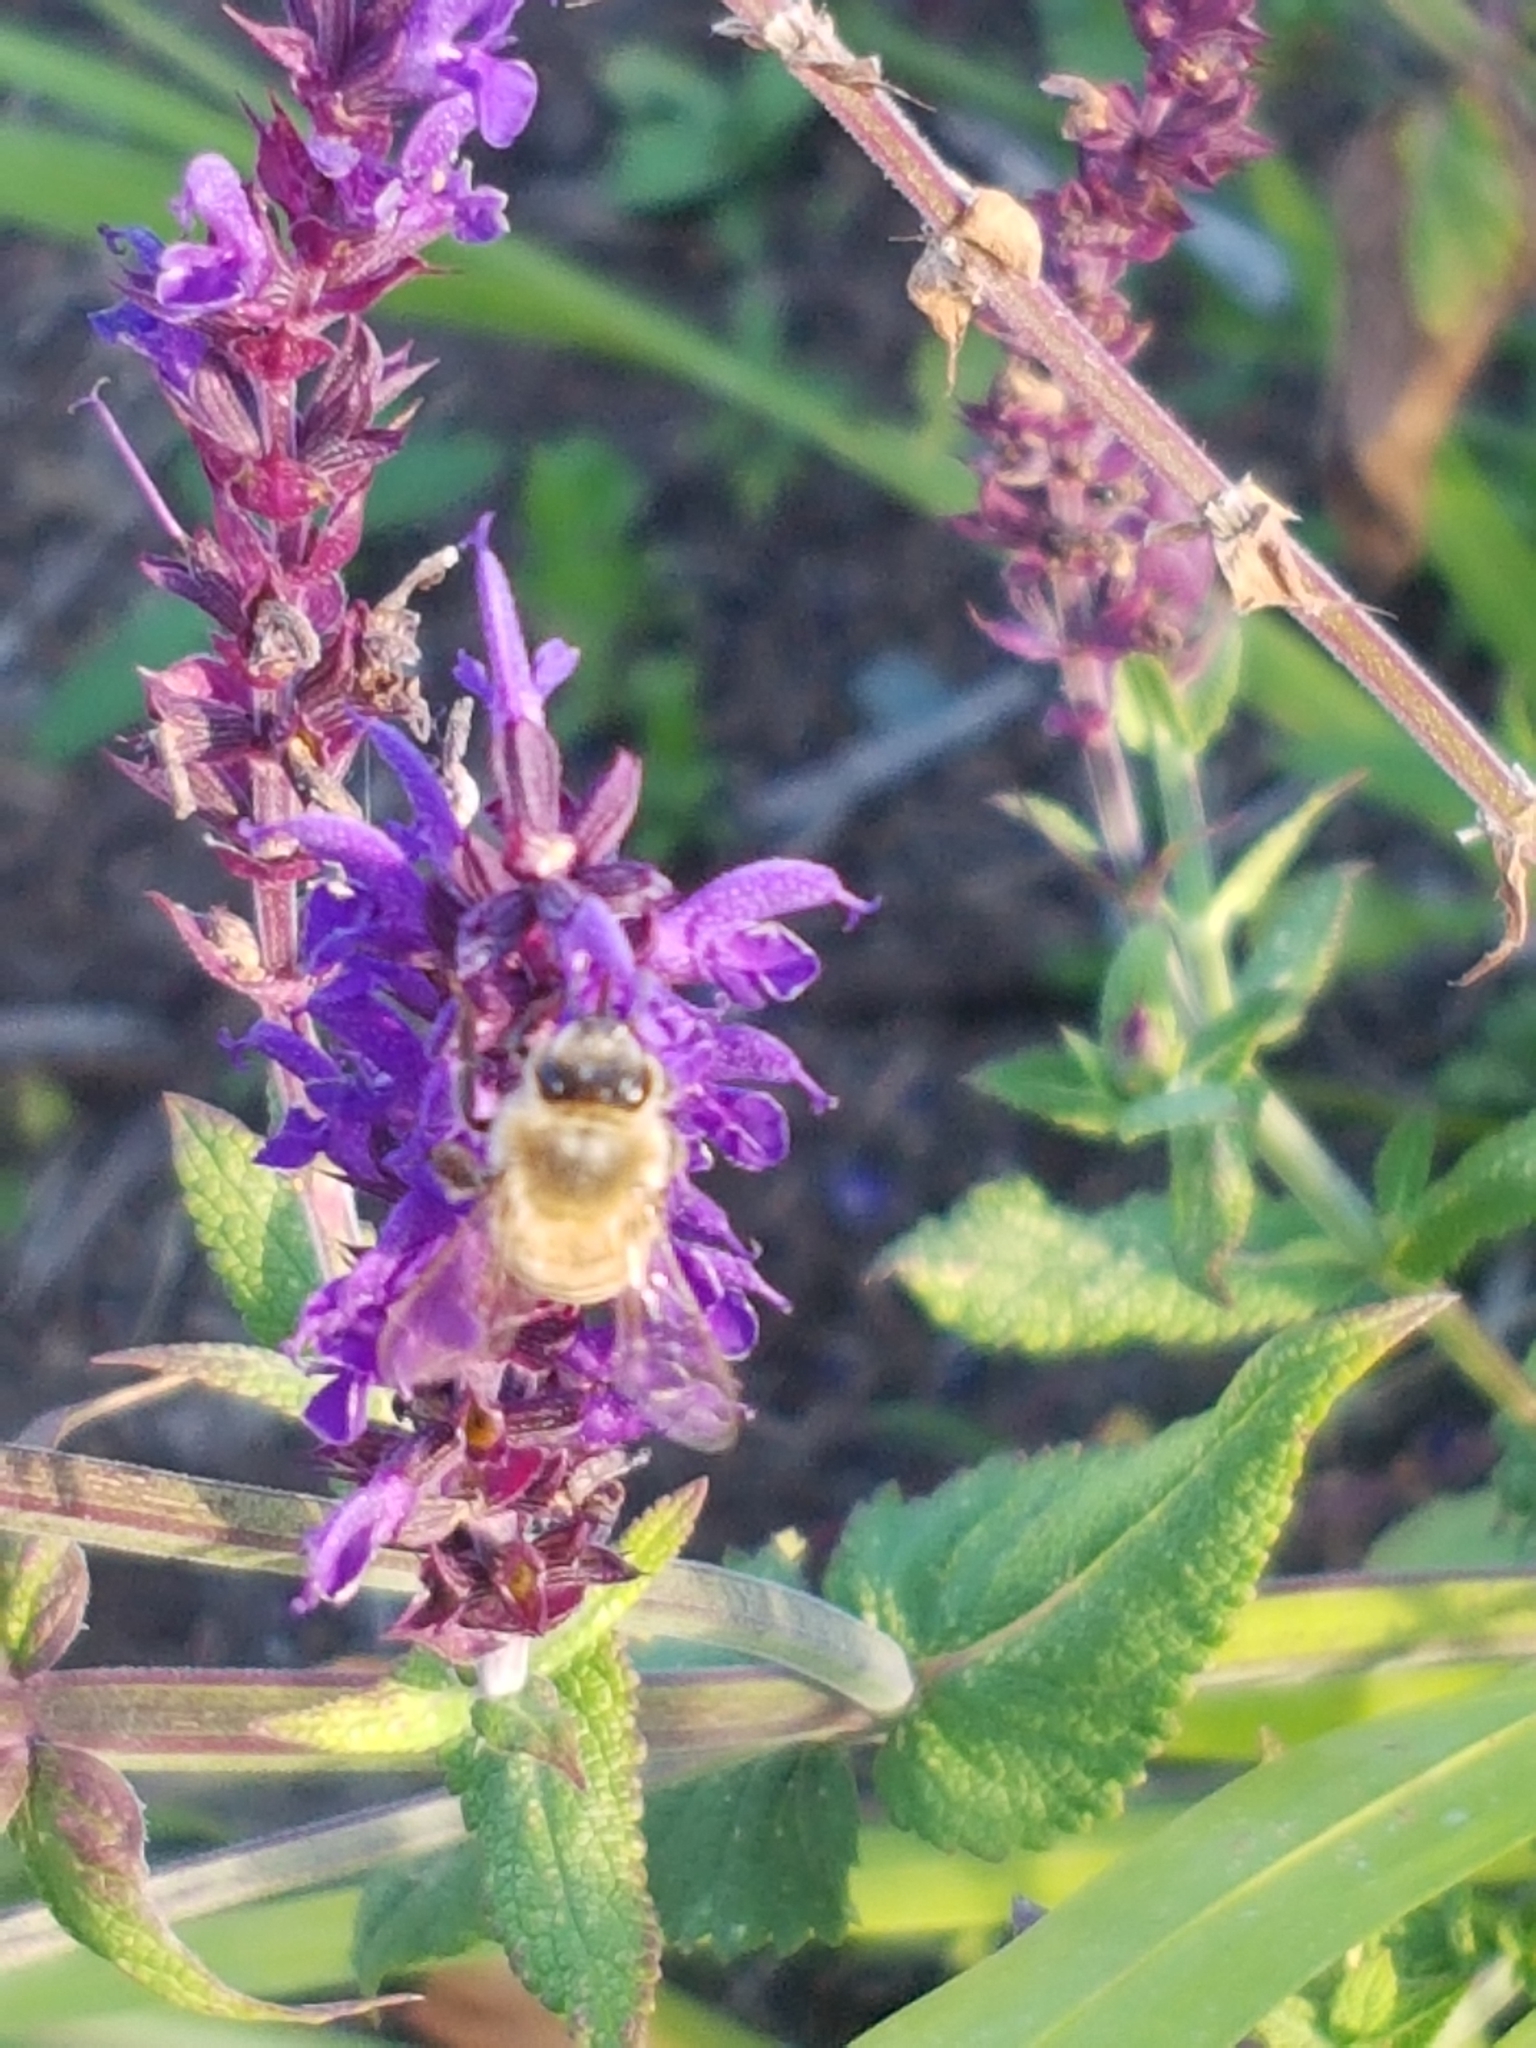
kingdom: Animalia
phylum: Arthropoda
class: Insecta
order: Hymenoptera
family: Apidae
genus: Apis
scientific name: Apis mellifera
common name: Honey bee
